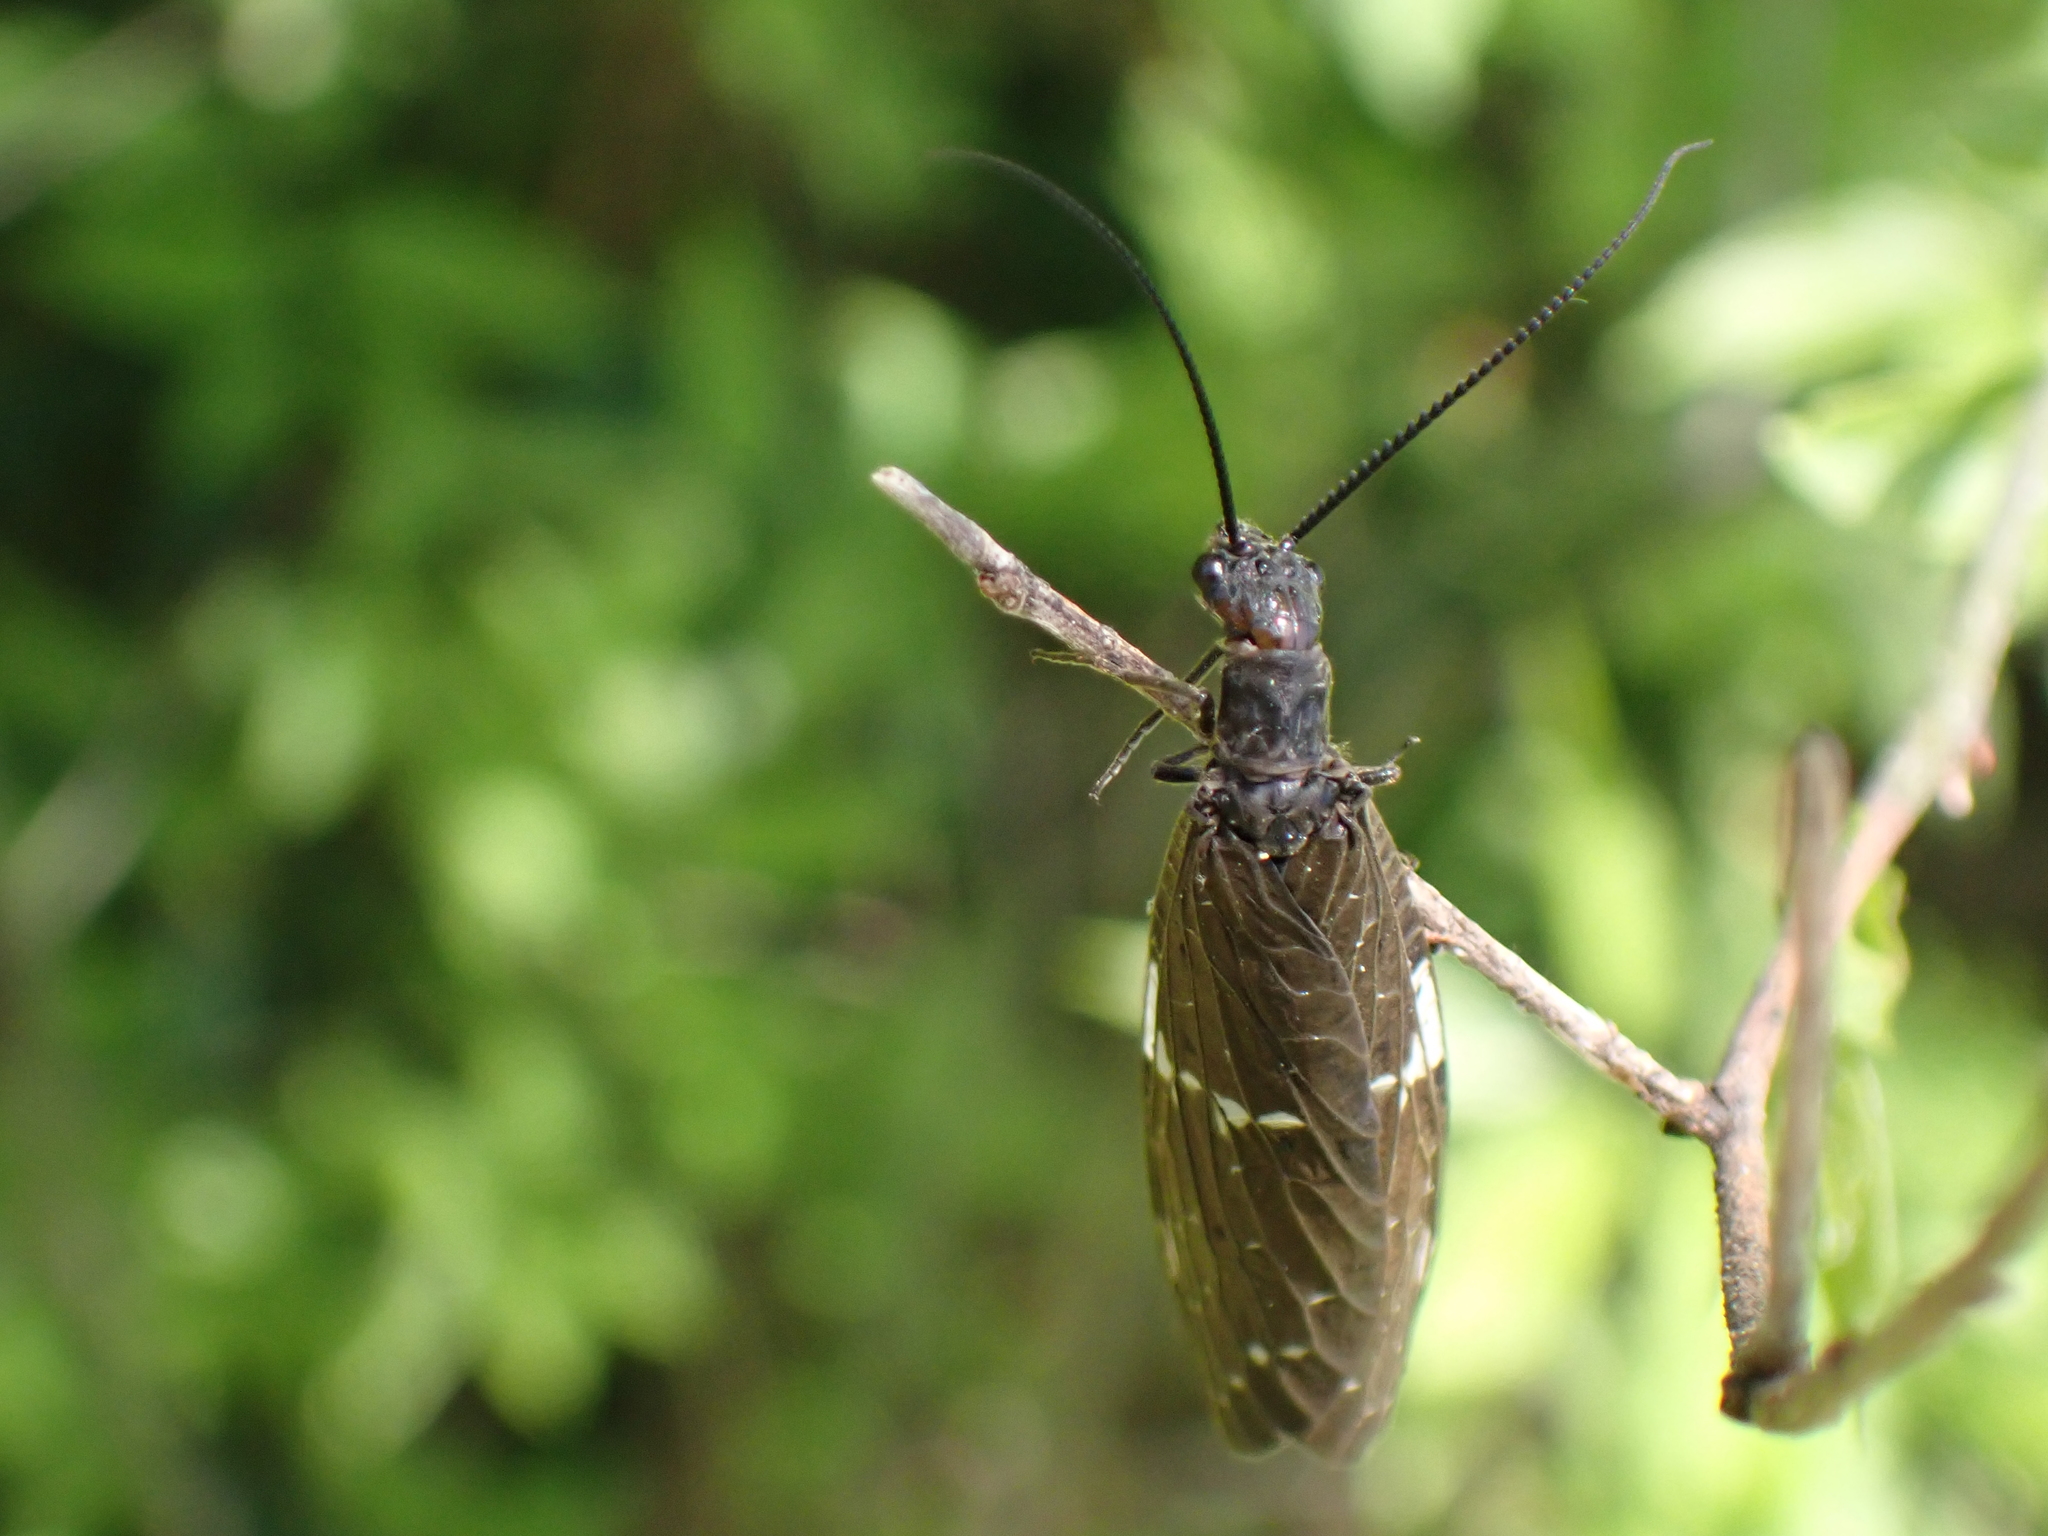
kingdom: Animalia
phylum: Arthropoda
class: Insecta
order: Megaloptera
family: Corydalidae
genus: Nigronia
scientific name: Nigronia serricornis
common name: Serrate dark fishfly
